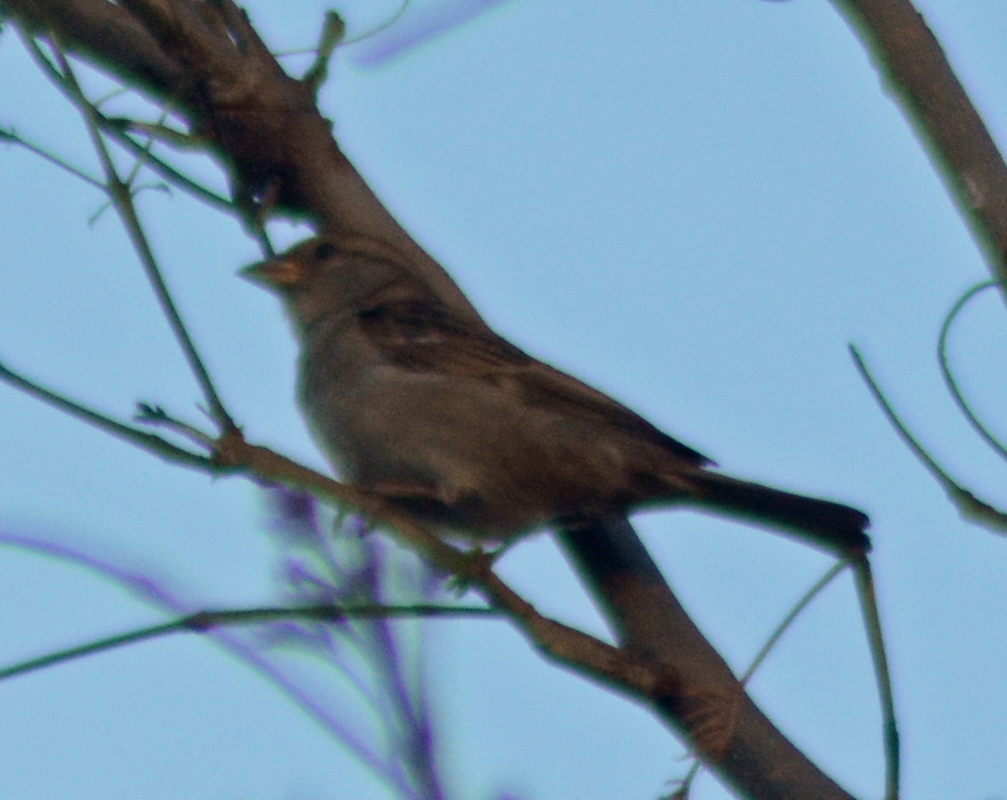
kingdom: Animalia
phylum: Chordata
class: Aves
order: Passeriformes
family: Passeridae
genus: Passer
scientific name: Passer domesticus
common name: House sparrow
